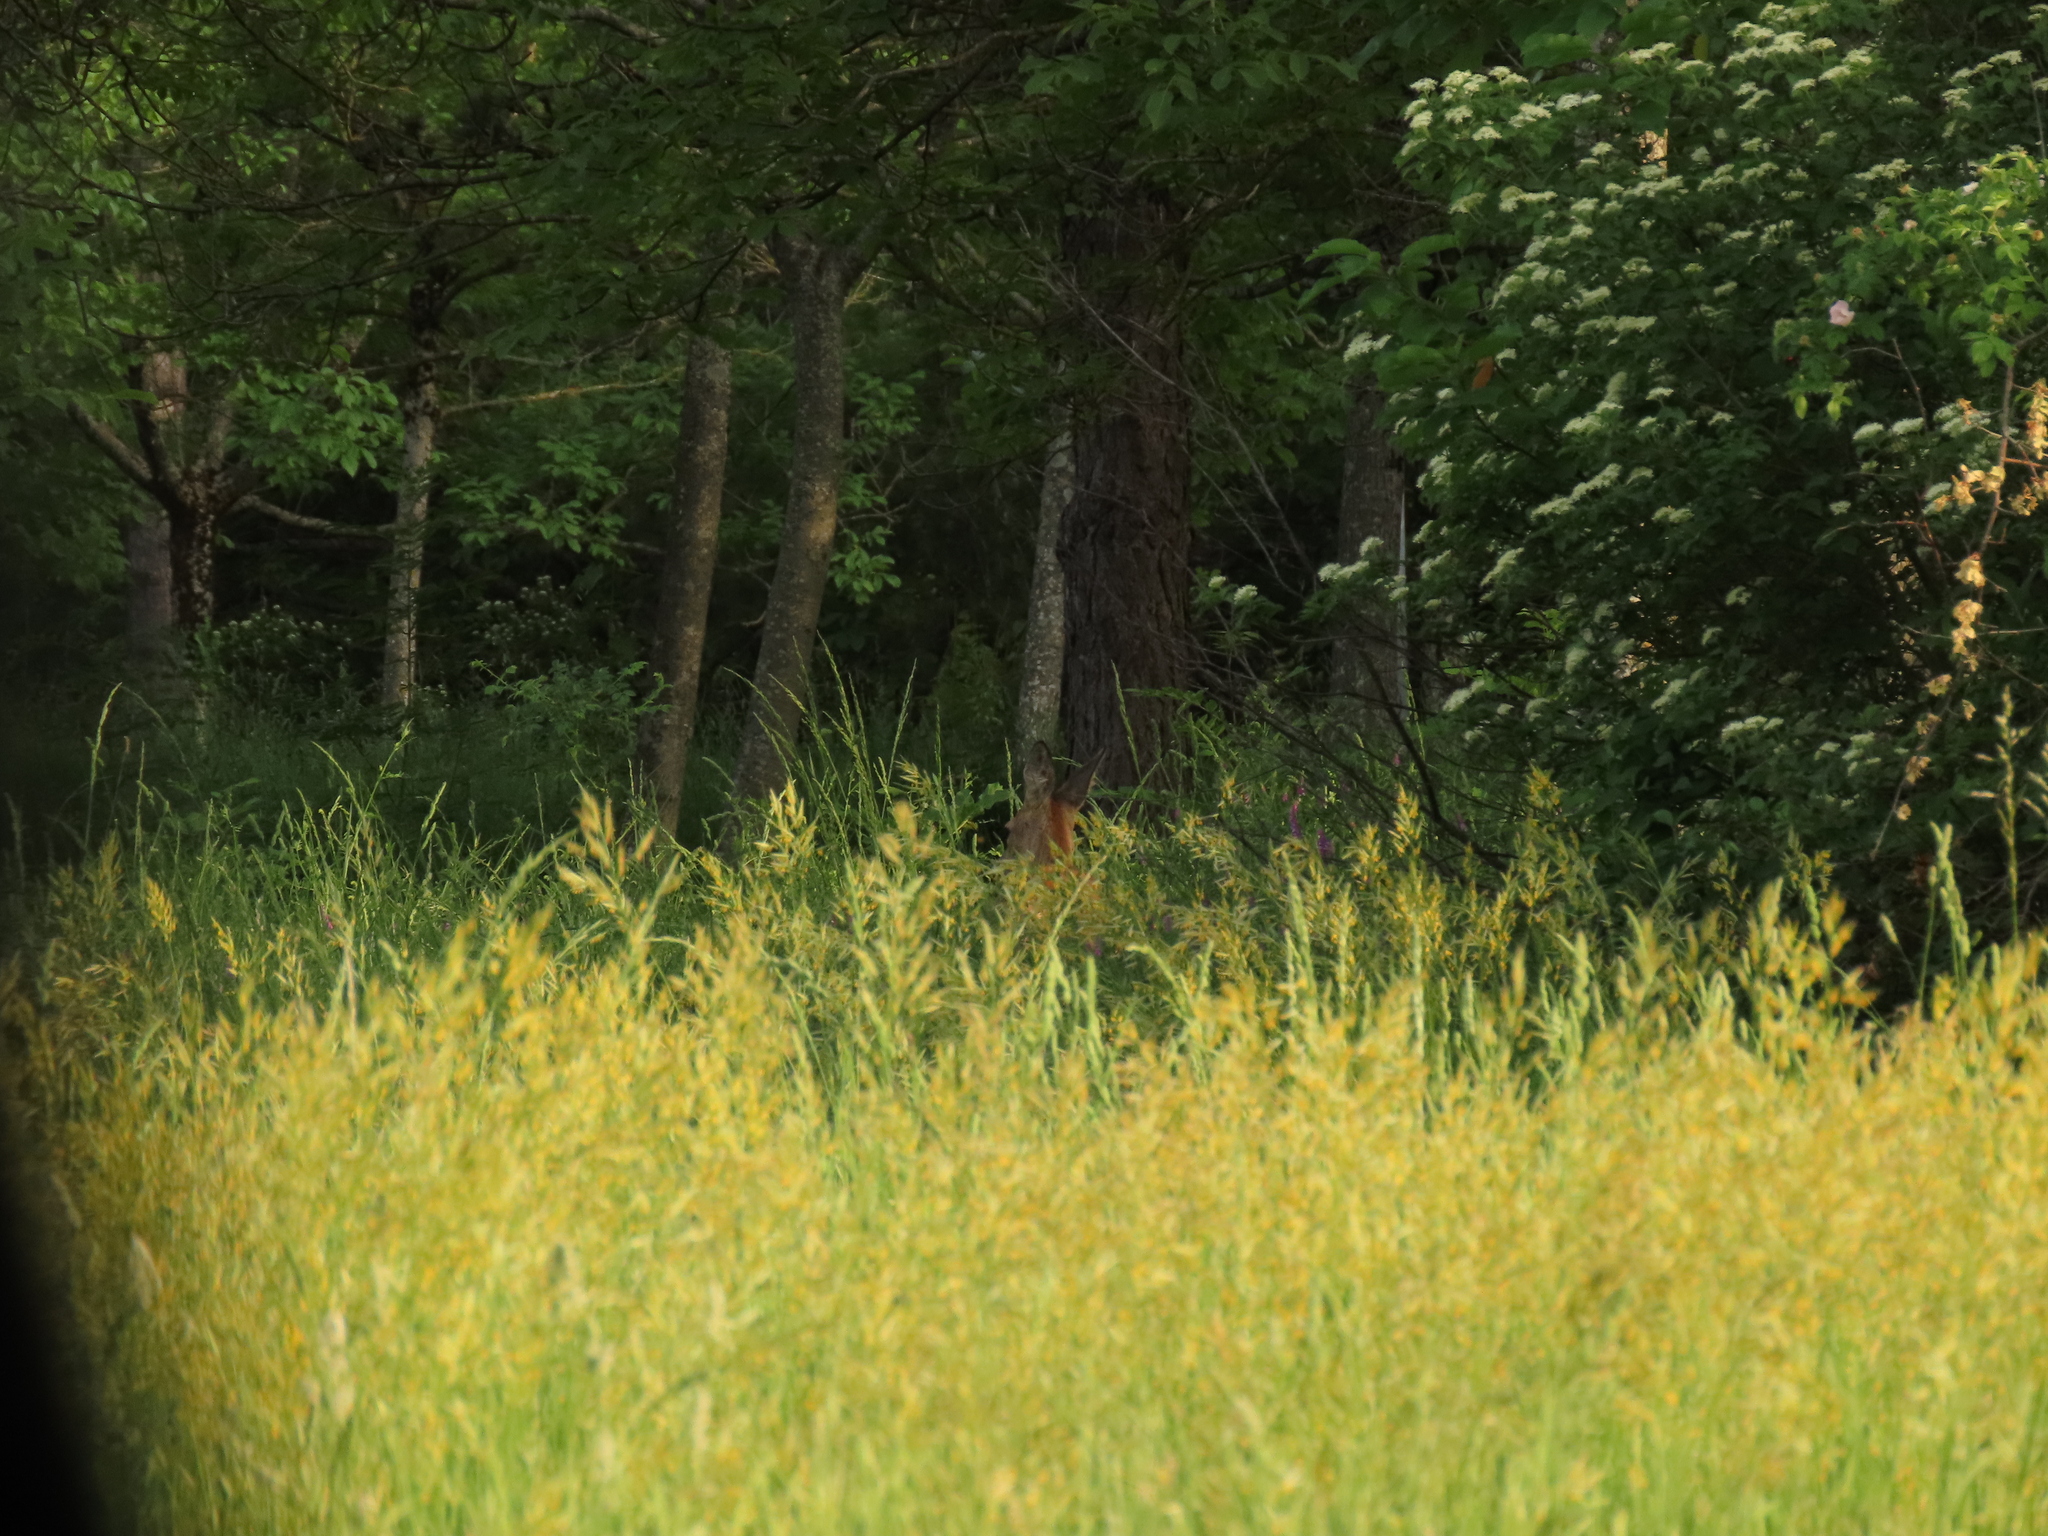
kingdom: Animalia
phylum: Chordata
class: Mammalia
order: Artiodactyla
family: Cervidae
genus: Capreolus
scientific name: Capreolus capreolus
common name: Western roe deer
